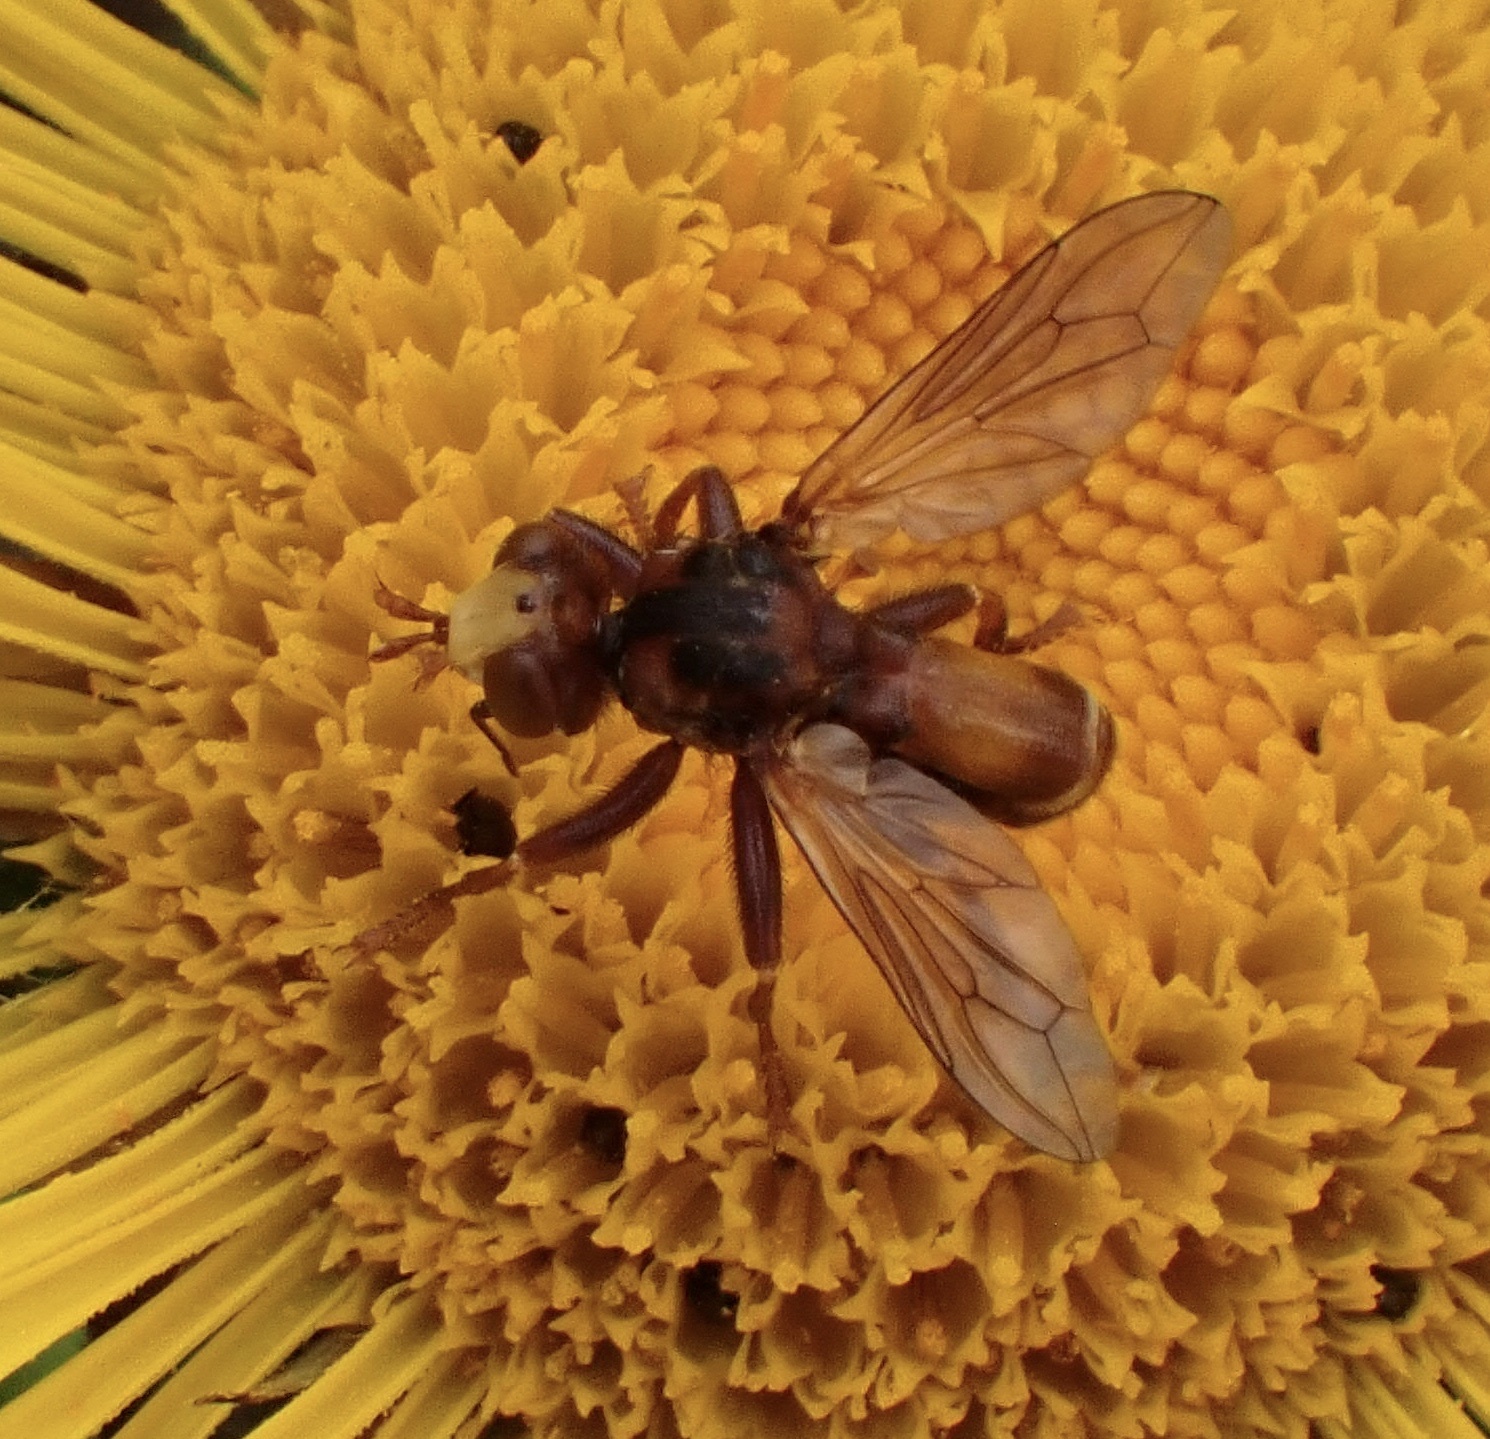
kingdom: Animalia
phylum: Arthropoda
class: Insecta
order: Diptera
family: Conopidae
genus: Sicus
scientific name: Sicus ferrugineus
